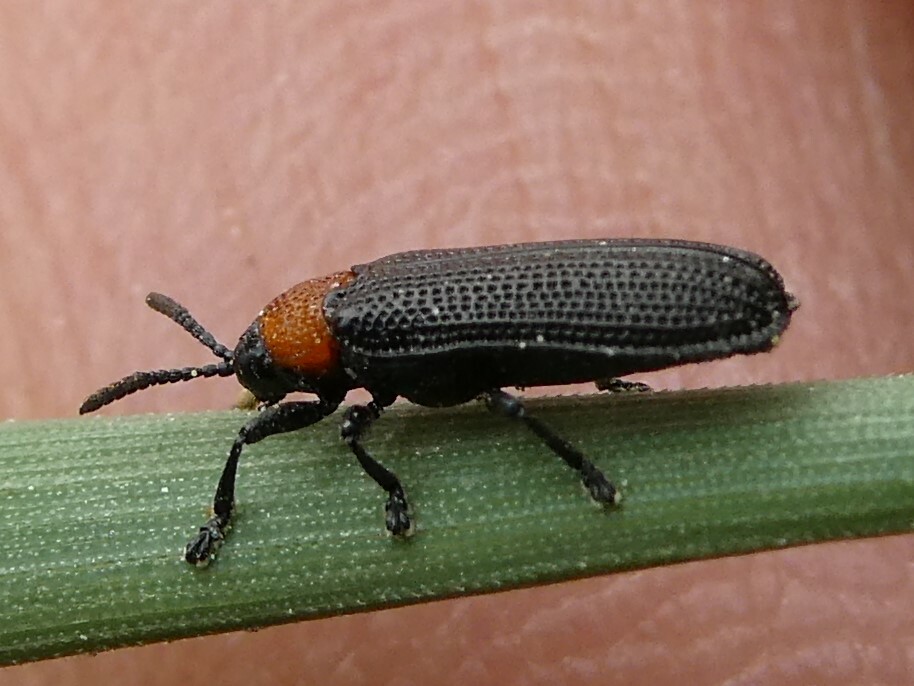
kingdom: Animalia
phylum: Arthropoda
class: Insecta
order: Coleoptera
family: Chrysomelidae
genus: Chalepus
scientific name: Chalepus walshii
